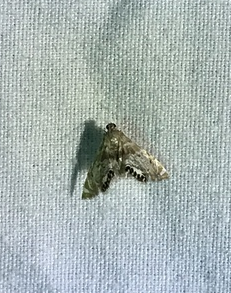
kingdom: Animalia
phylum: Arthropoda
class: Insecta
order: Lepidoptera
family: Crambidae
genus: Petrophila
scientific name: Petrophila fulicalis
